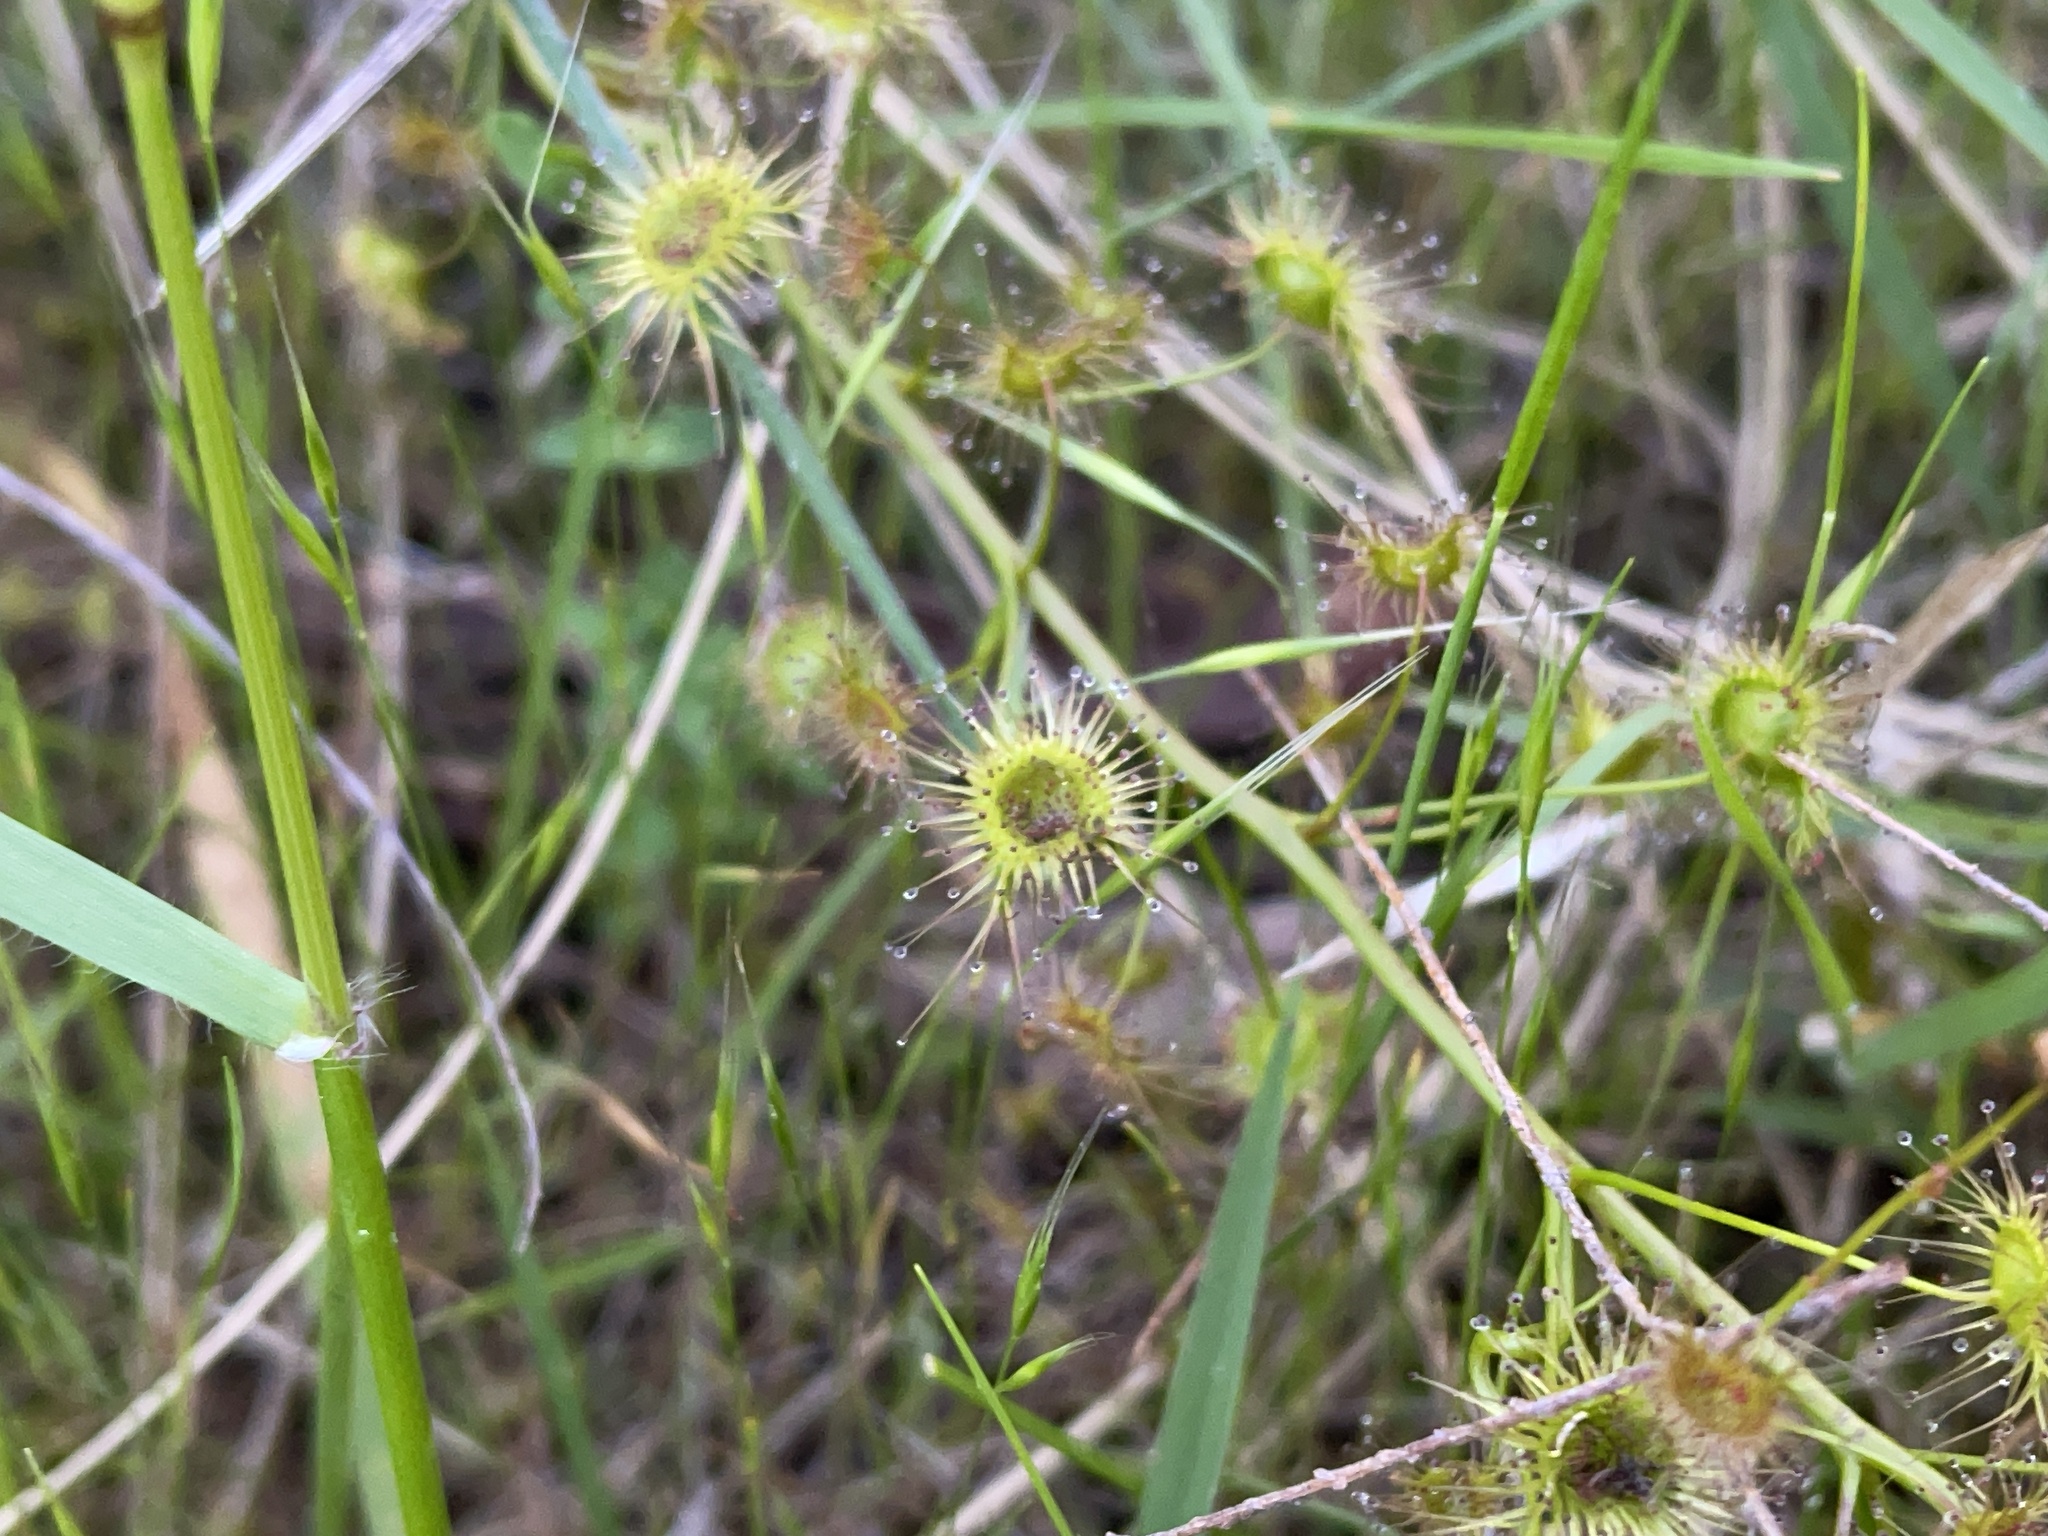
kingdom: Plantae
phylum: Tracheophyta
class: Magnoliopsida
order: Caryophyllales
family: Droseraceae
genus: Drosera
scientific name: Drosera peltata
